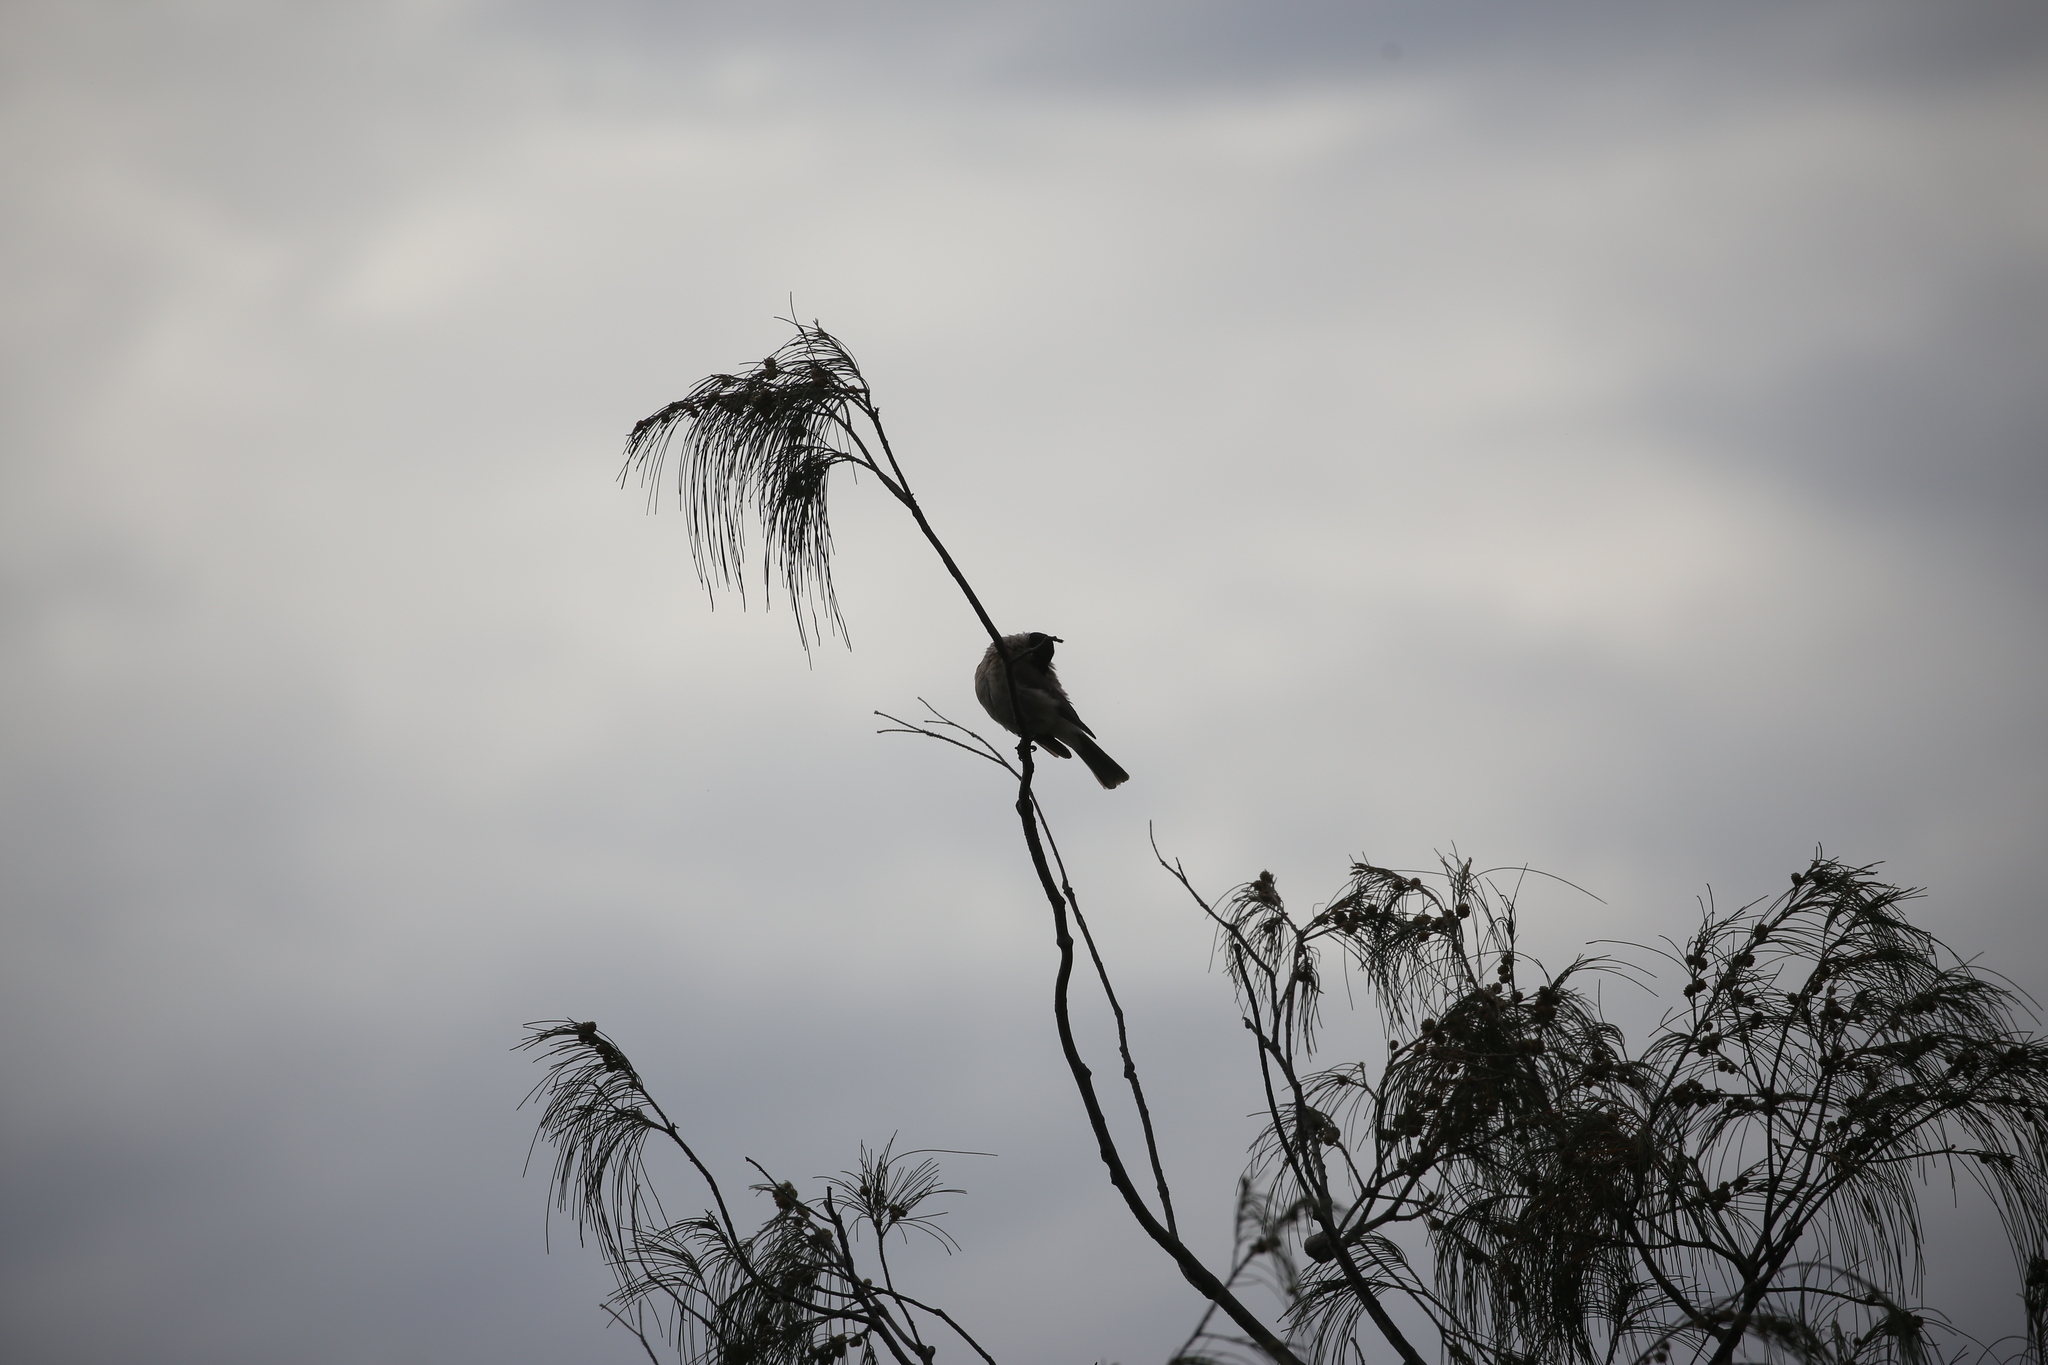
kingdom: Animalia
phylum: Chordata
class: Aves
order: Passeriformes
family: Meliphagidae
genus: Philemon
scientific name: Philemon corniculatus
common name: Noisy friarbird
